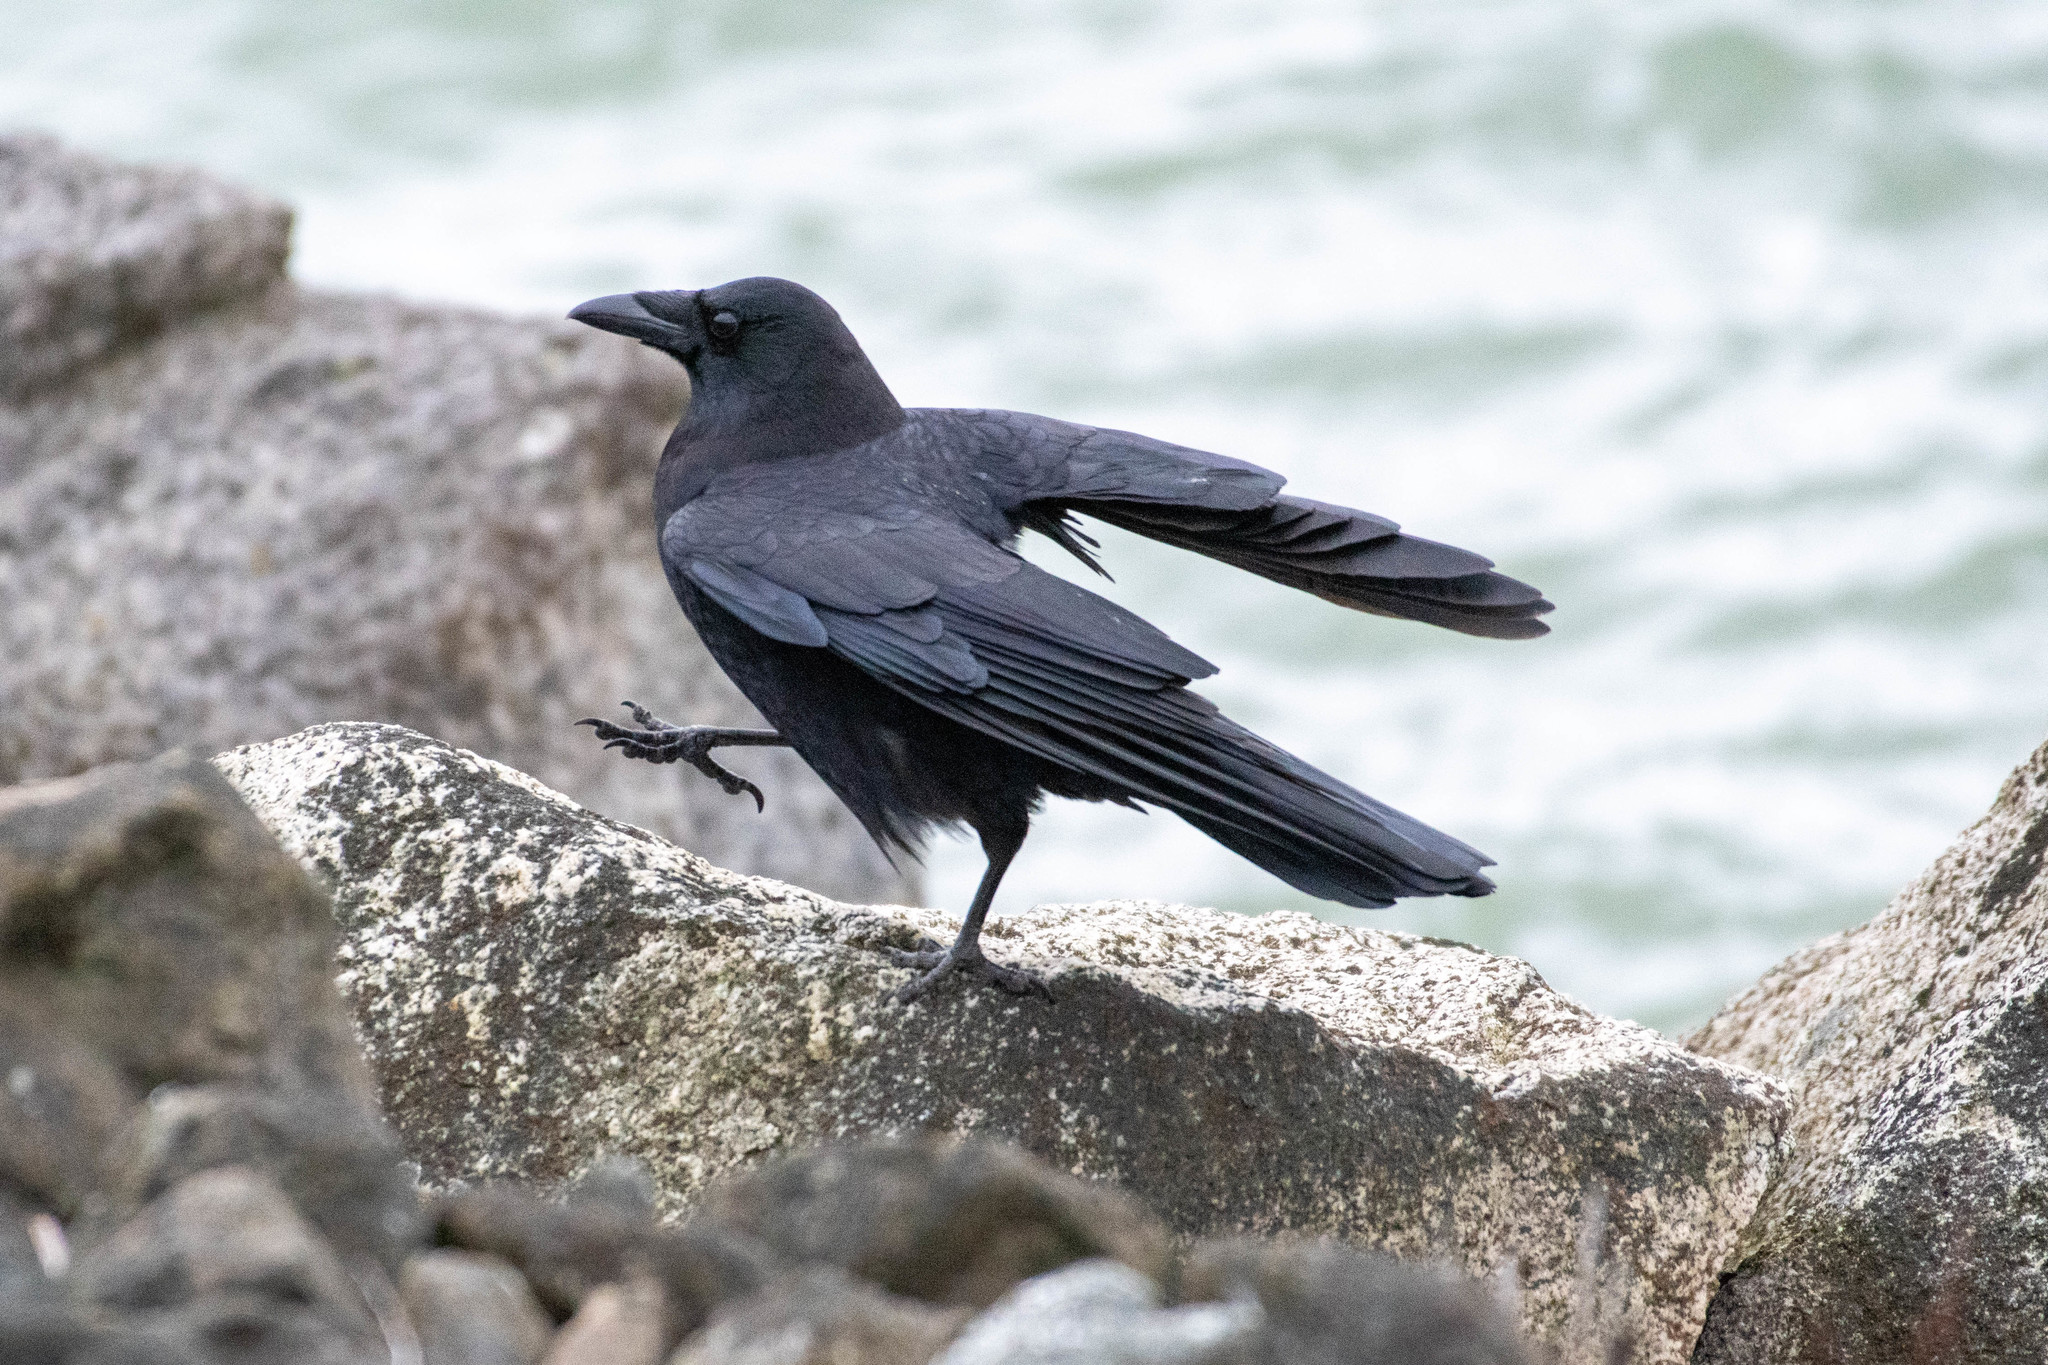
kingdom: Animalia
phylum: Chordata
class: Aves
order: Passeriformes
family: Corvidae
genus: Corvus
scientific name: Corvus brachyrhynchos
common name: American crow
